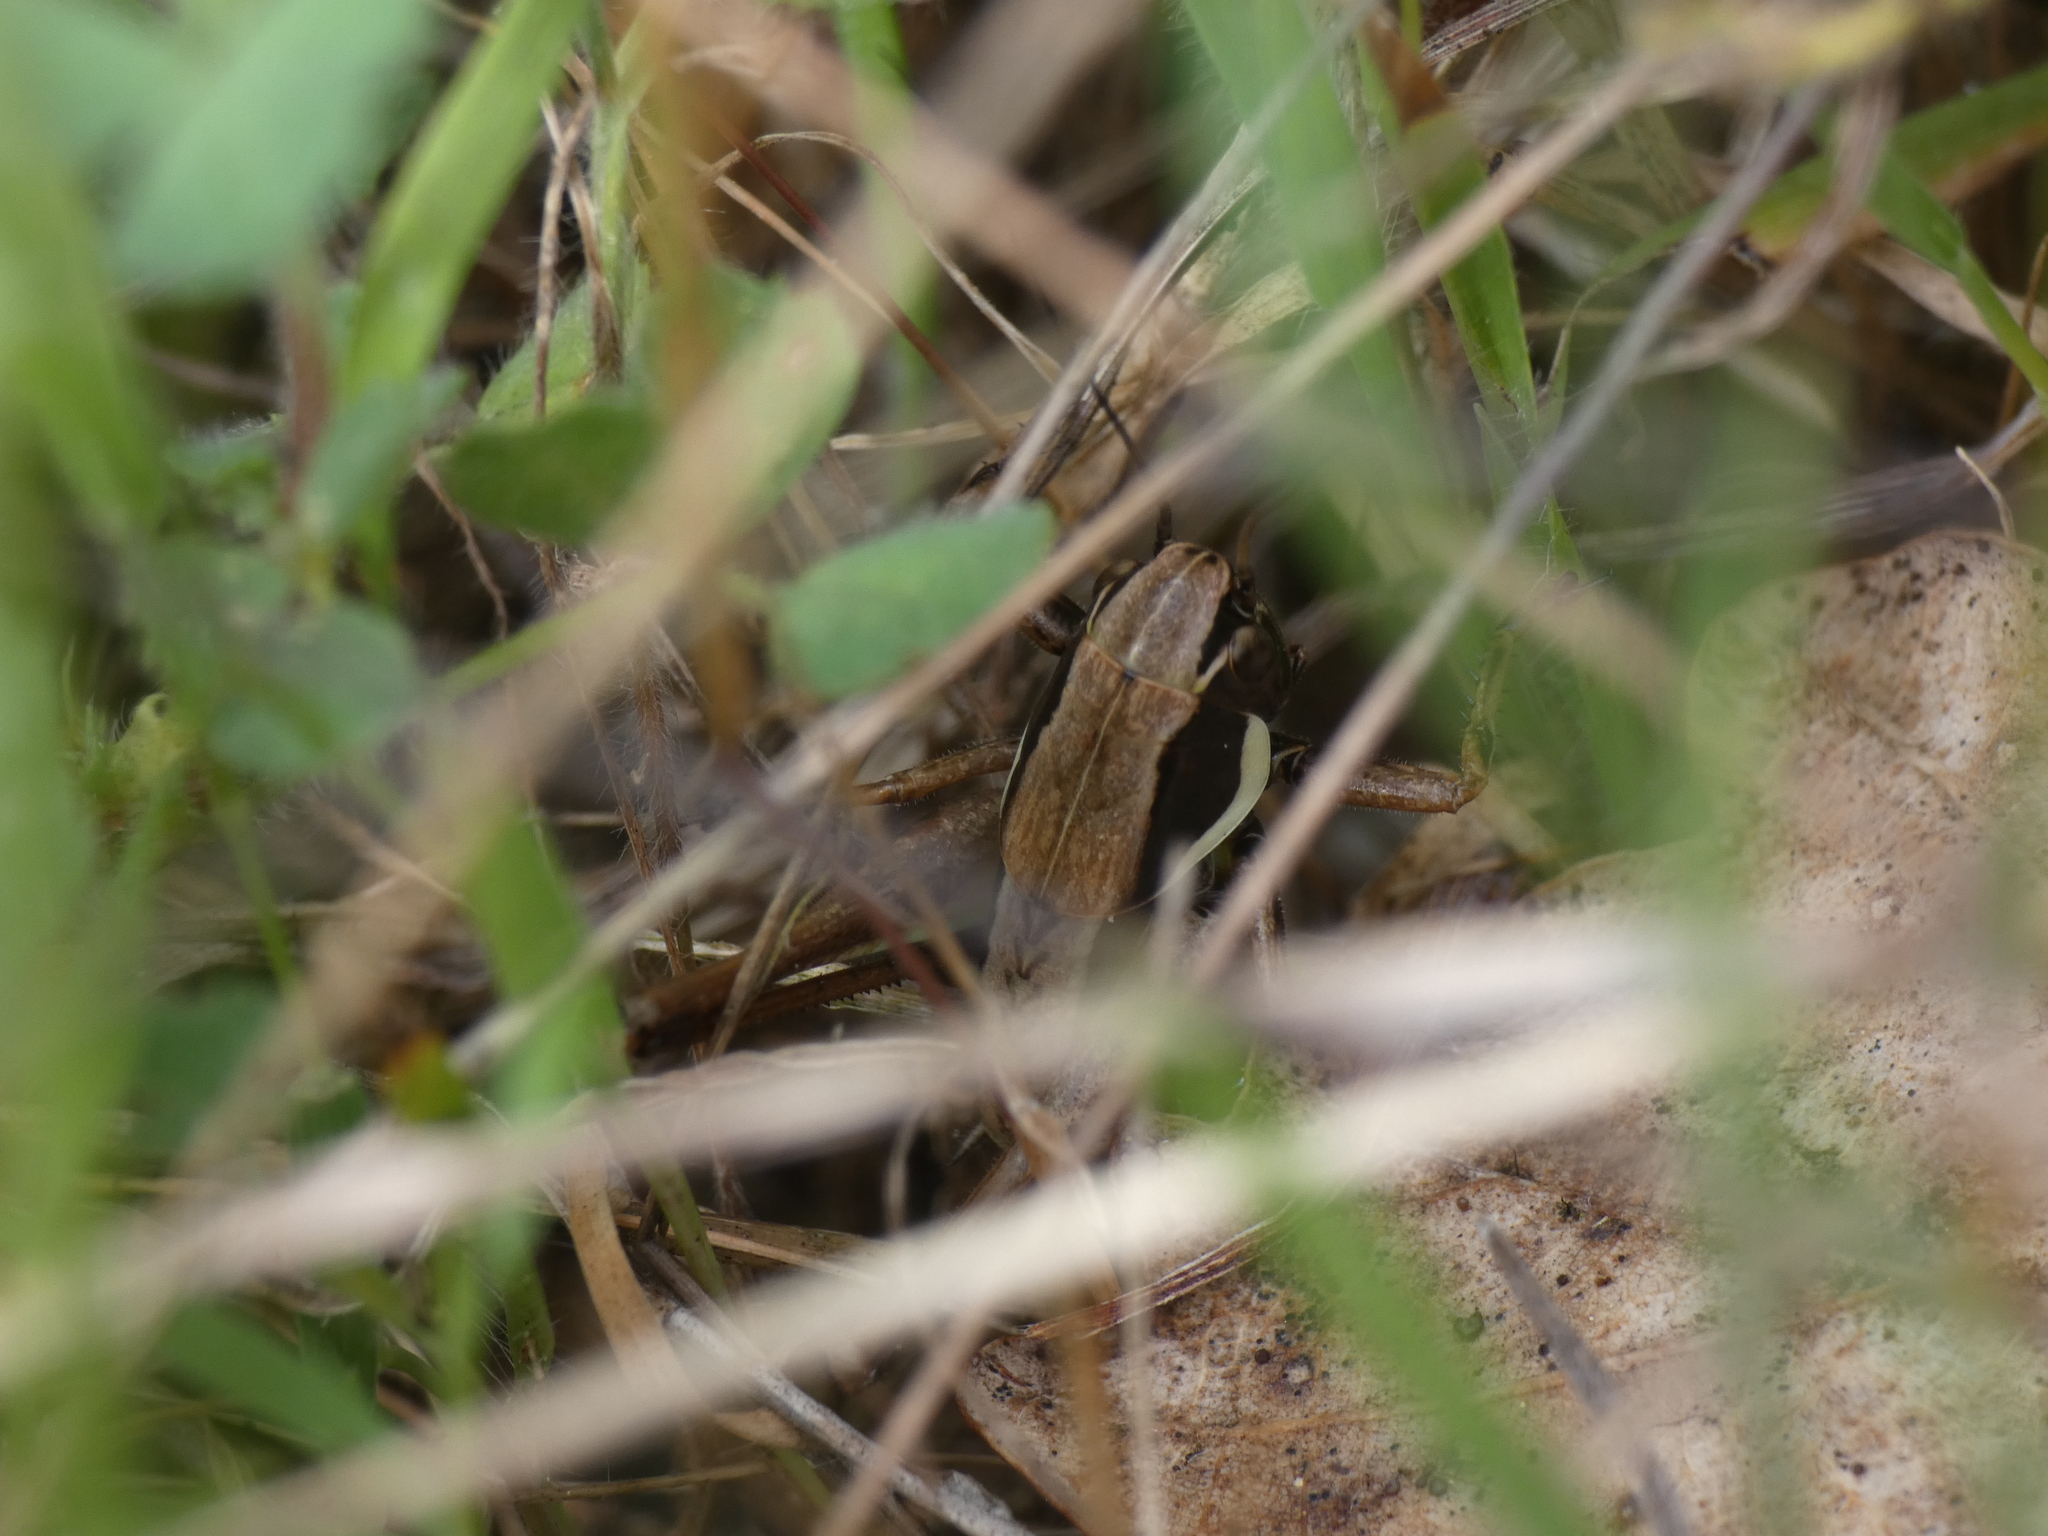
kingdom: Animalia
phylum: Arthropoda
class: Insecta
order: Orthoptera
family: Tettigoniidae
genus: Pholidoptera
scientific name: Pholidoptera femorata
